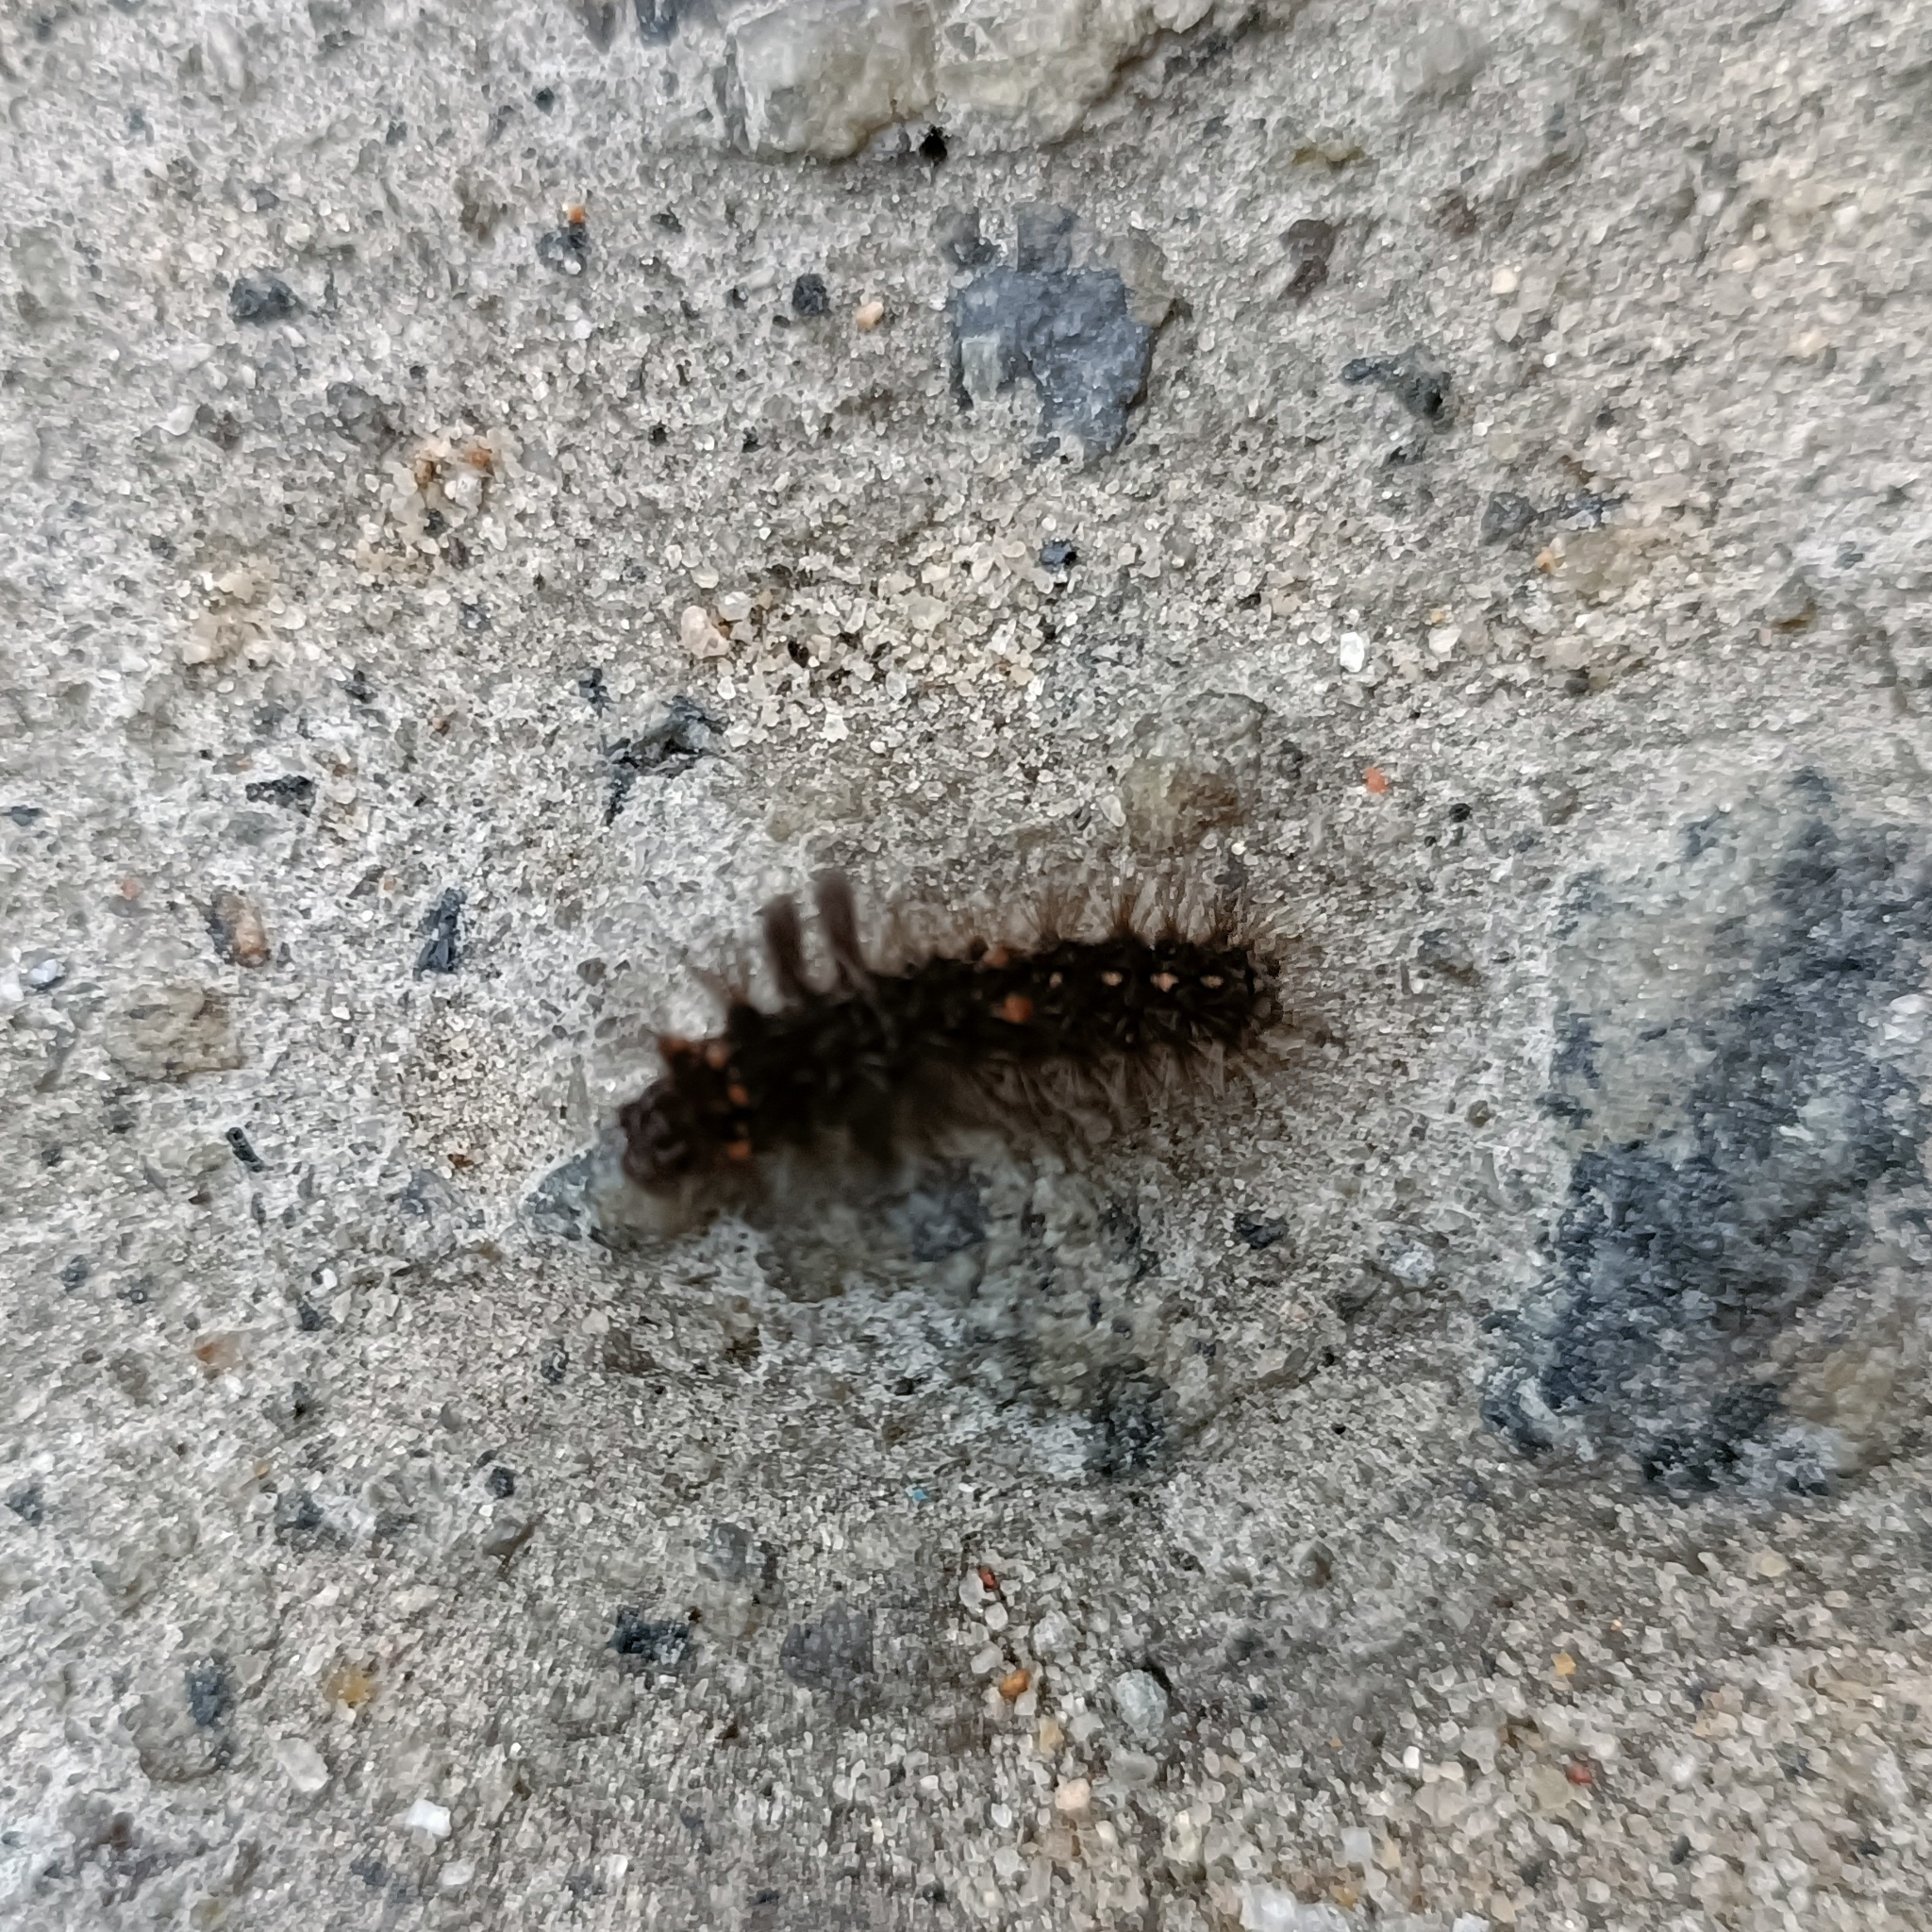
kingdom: Animalia
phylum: Arthropoda
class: Insecta
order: Lepidoptera
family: Erebidae
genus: Nepita
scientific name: Nepita conferta
